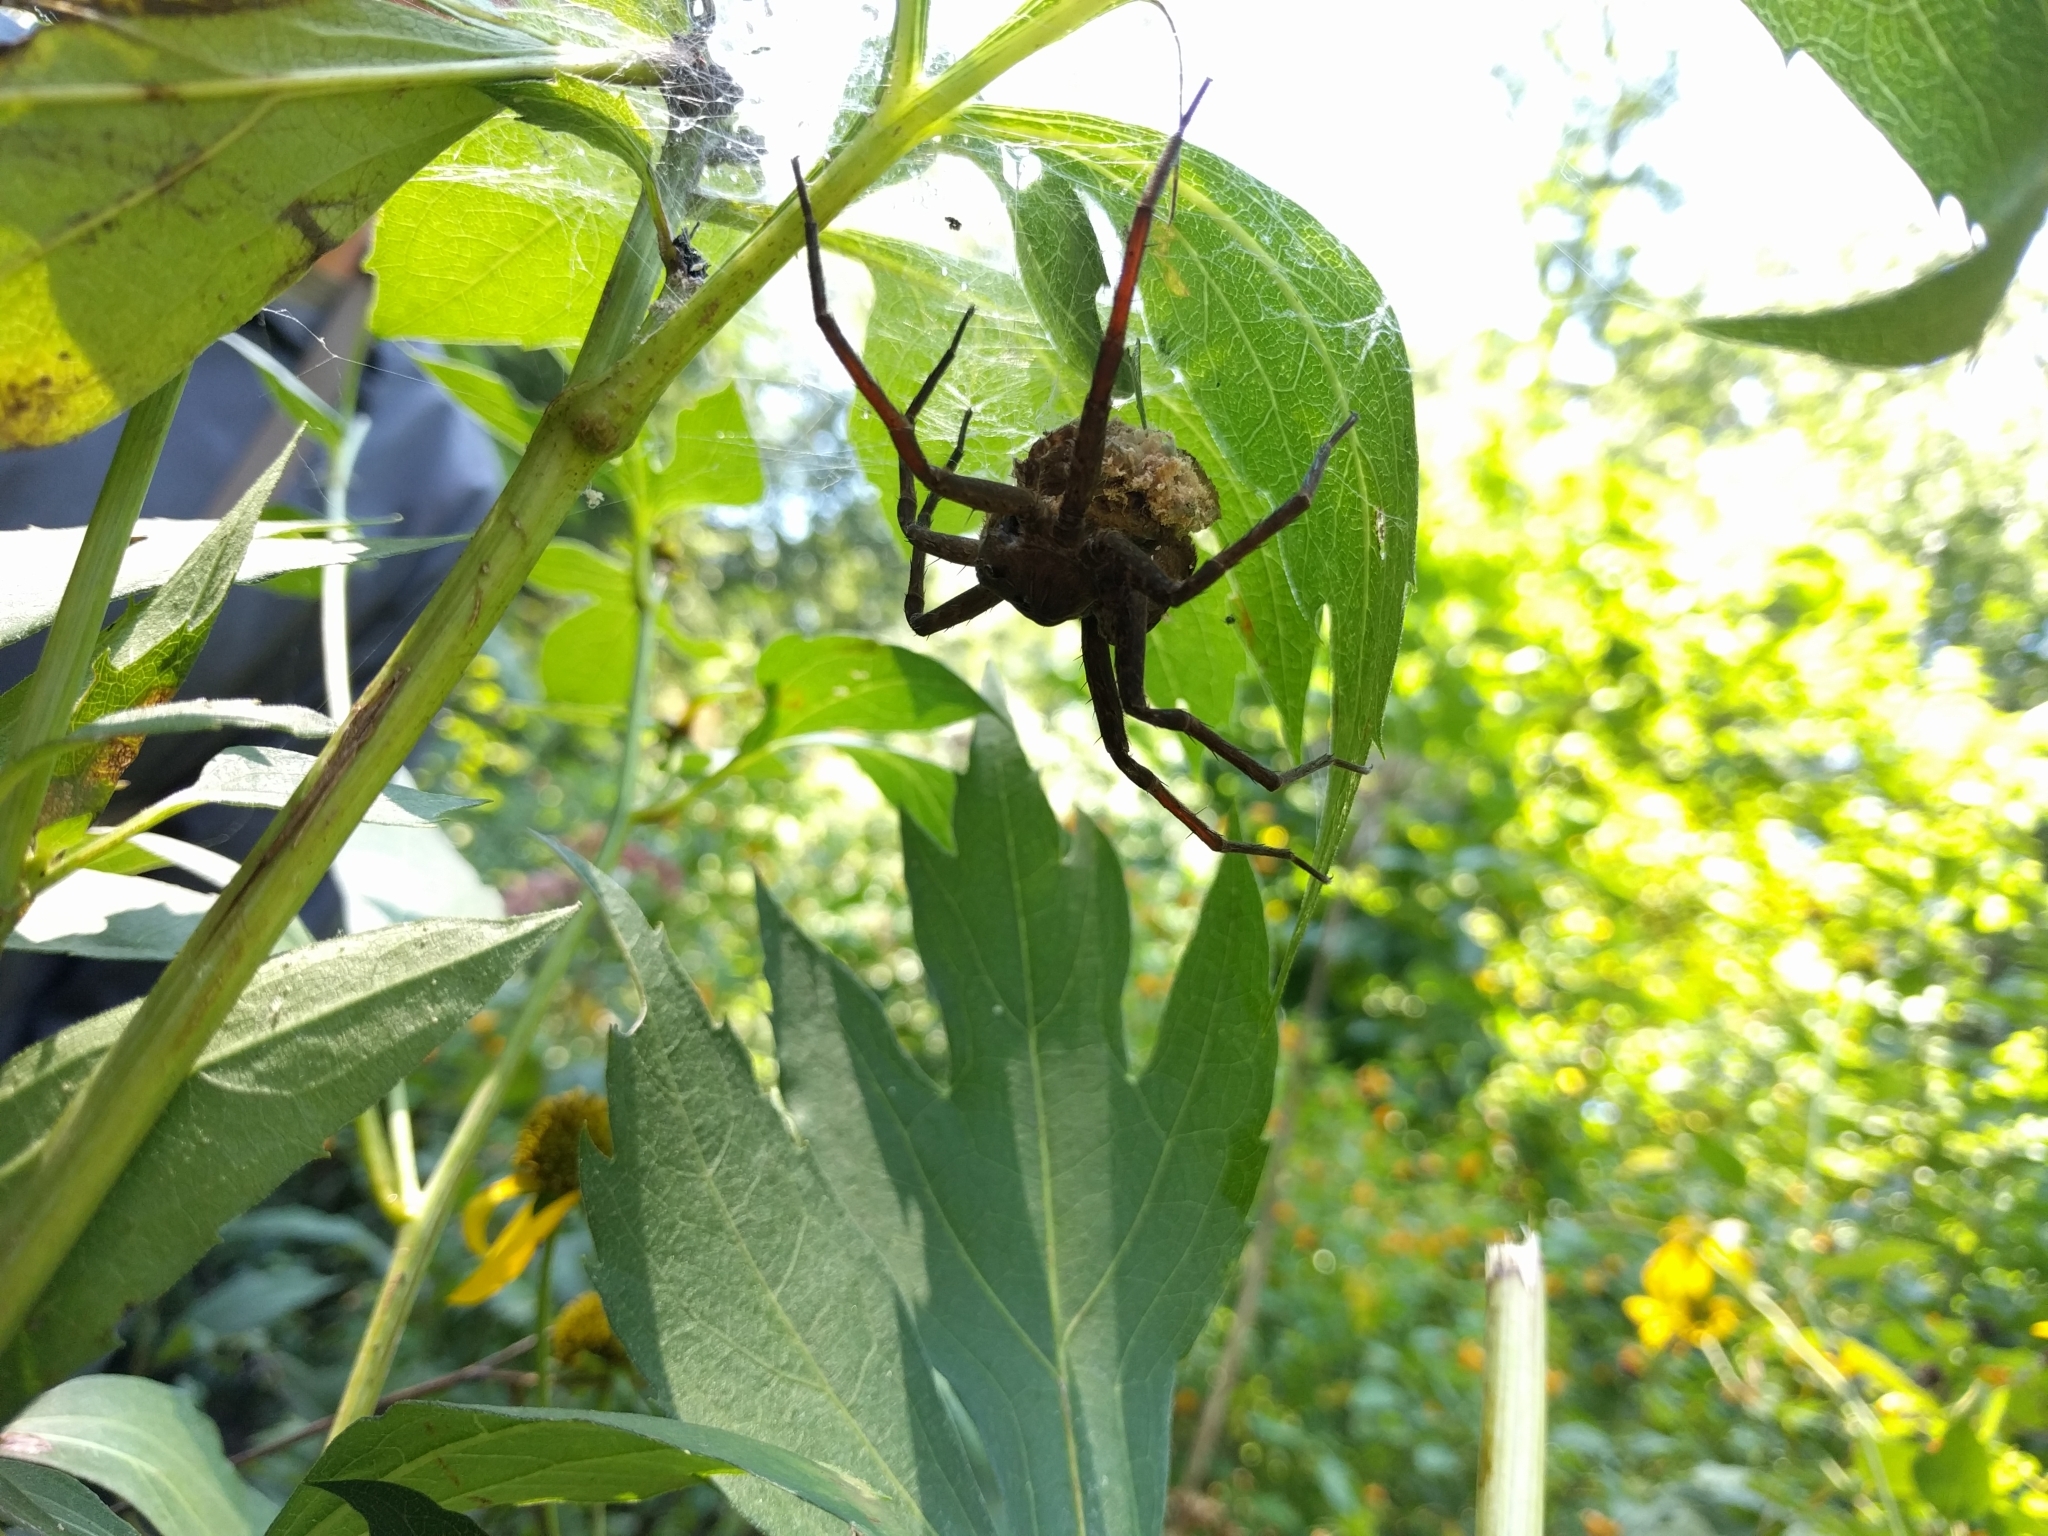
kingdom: Animalia
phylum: Arthropoda
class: Arachnida
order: Araneae
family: Pisauridae
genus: Dolomedes
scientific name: Dolomedes vittatus
